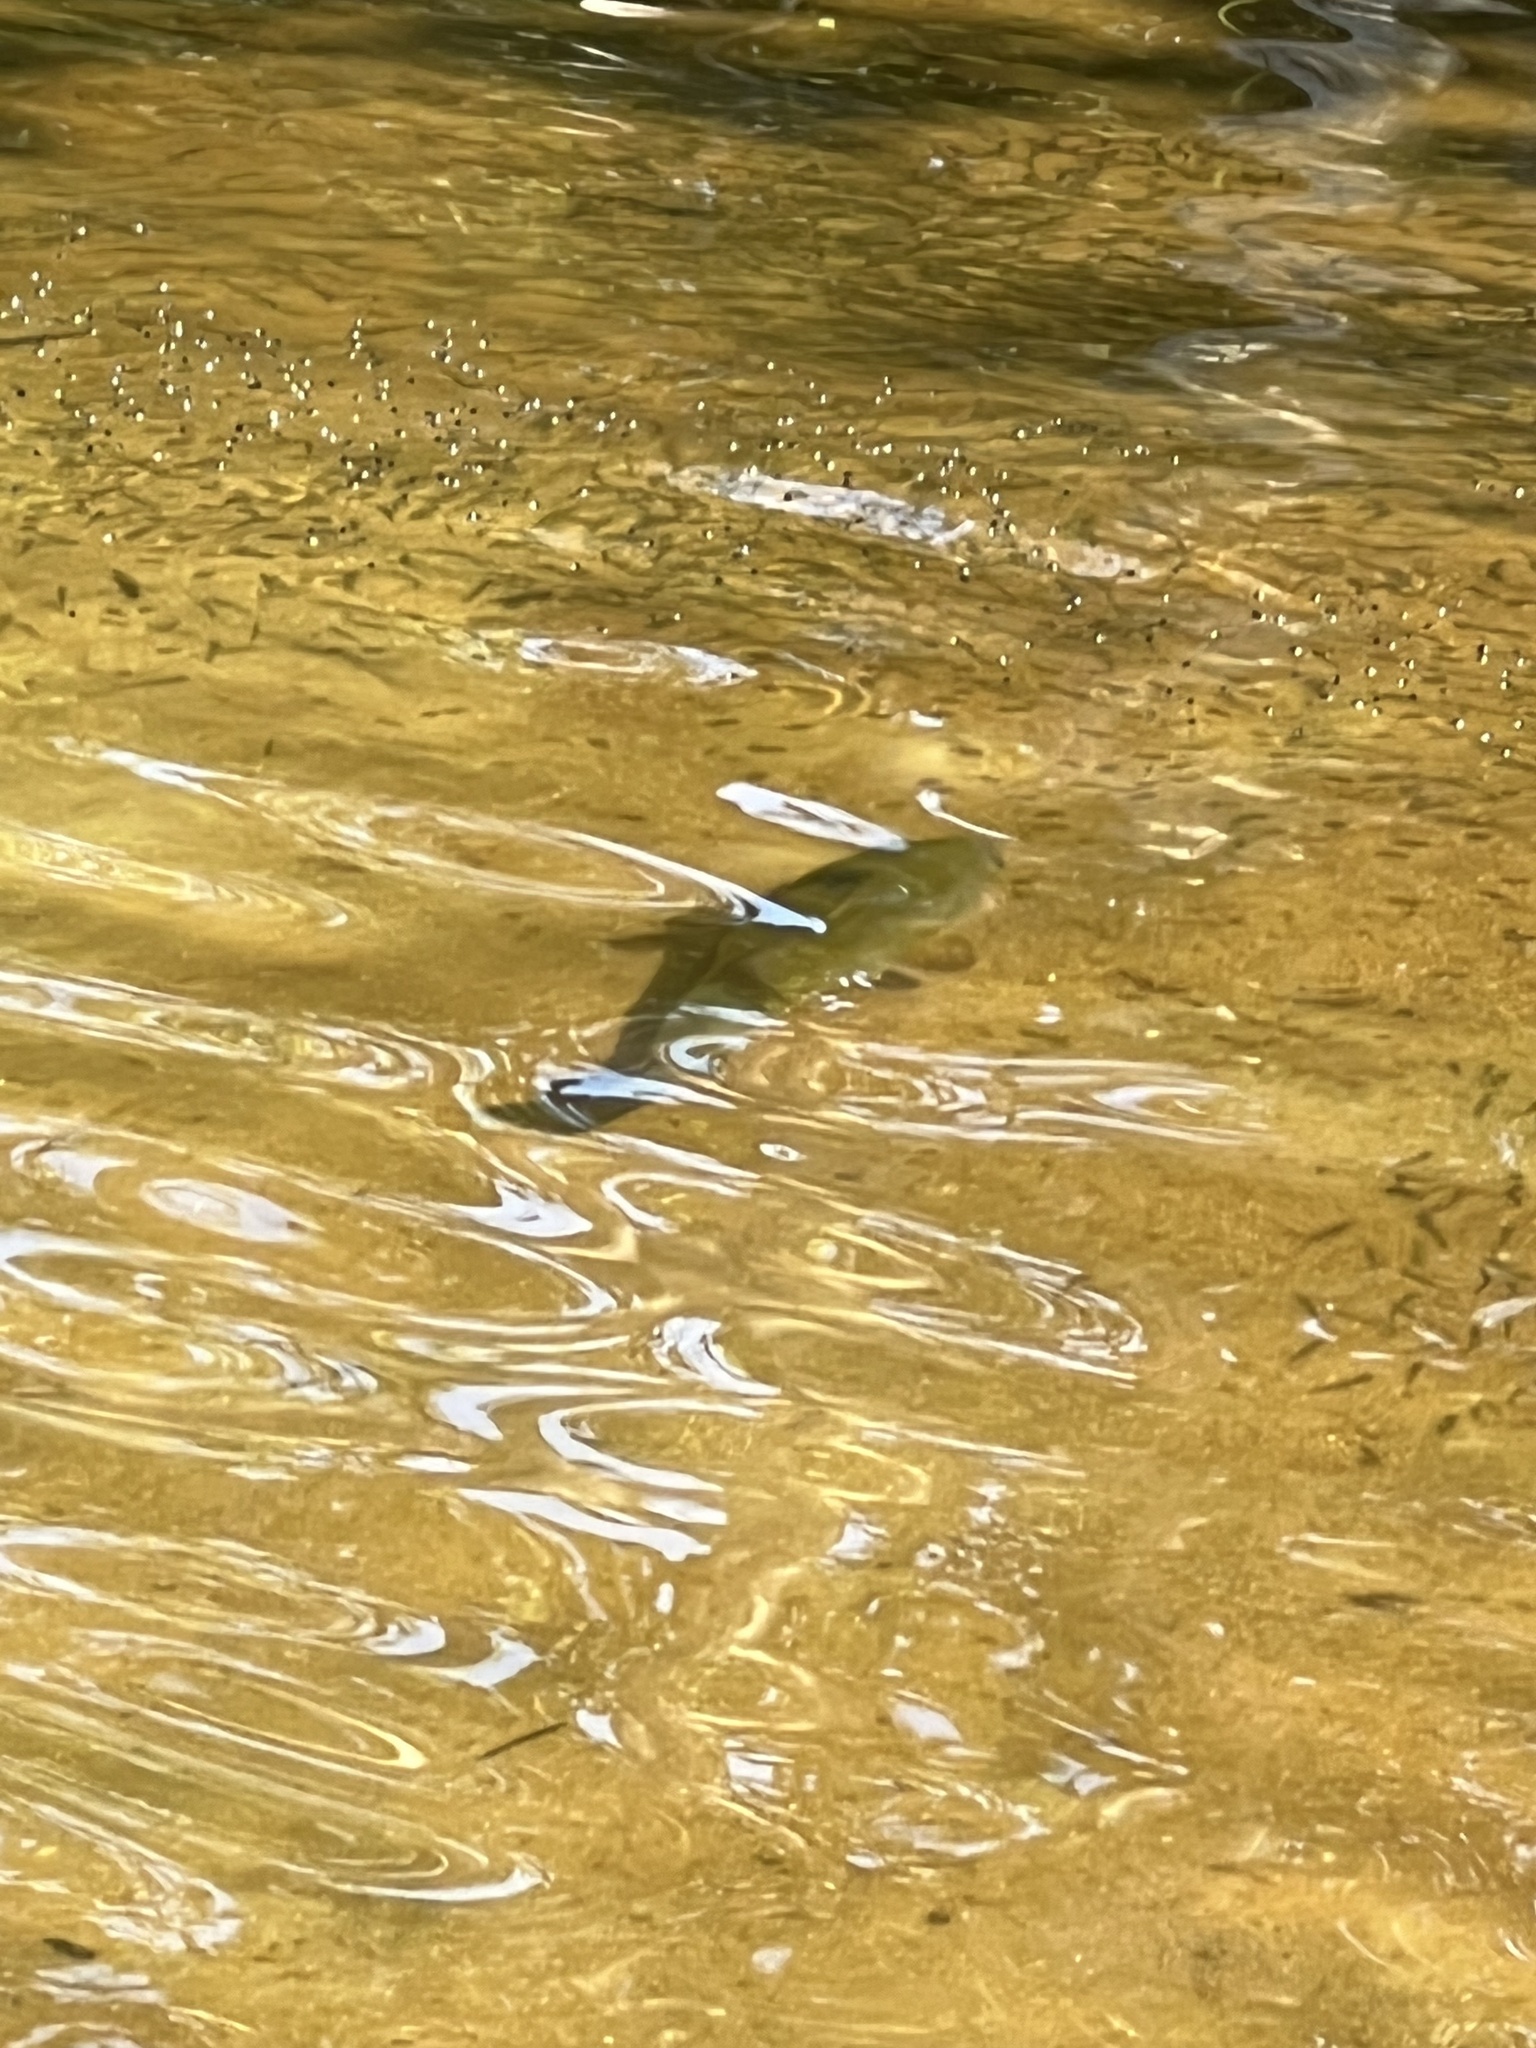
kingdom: Animalia
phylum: Chordata
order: Perciformes
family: Centrarchidae
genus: Micropterus
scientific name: Micropterus
